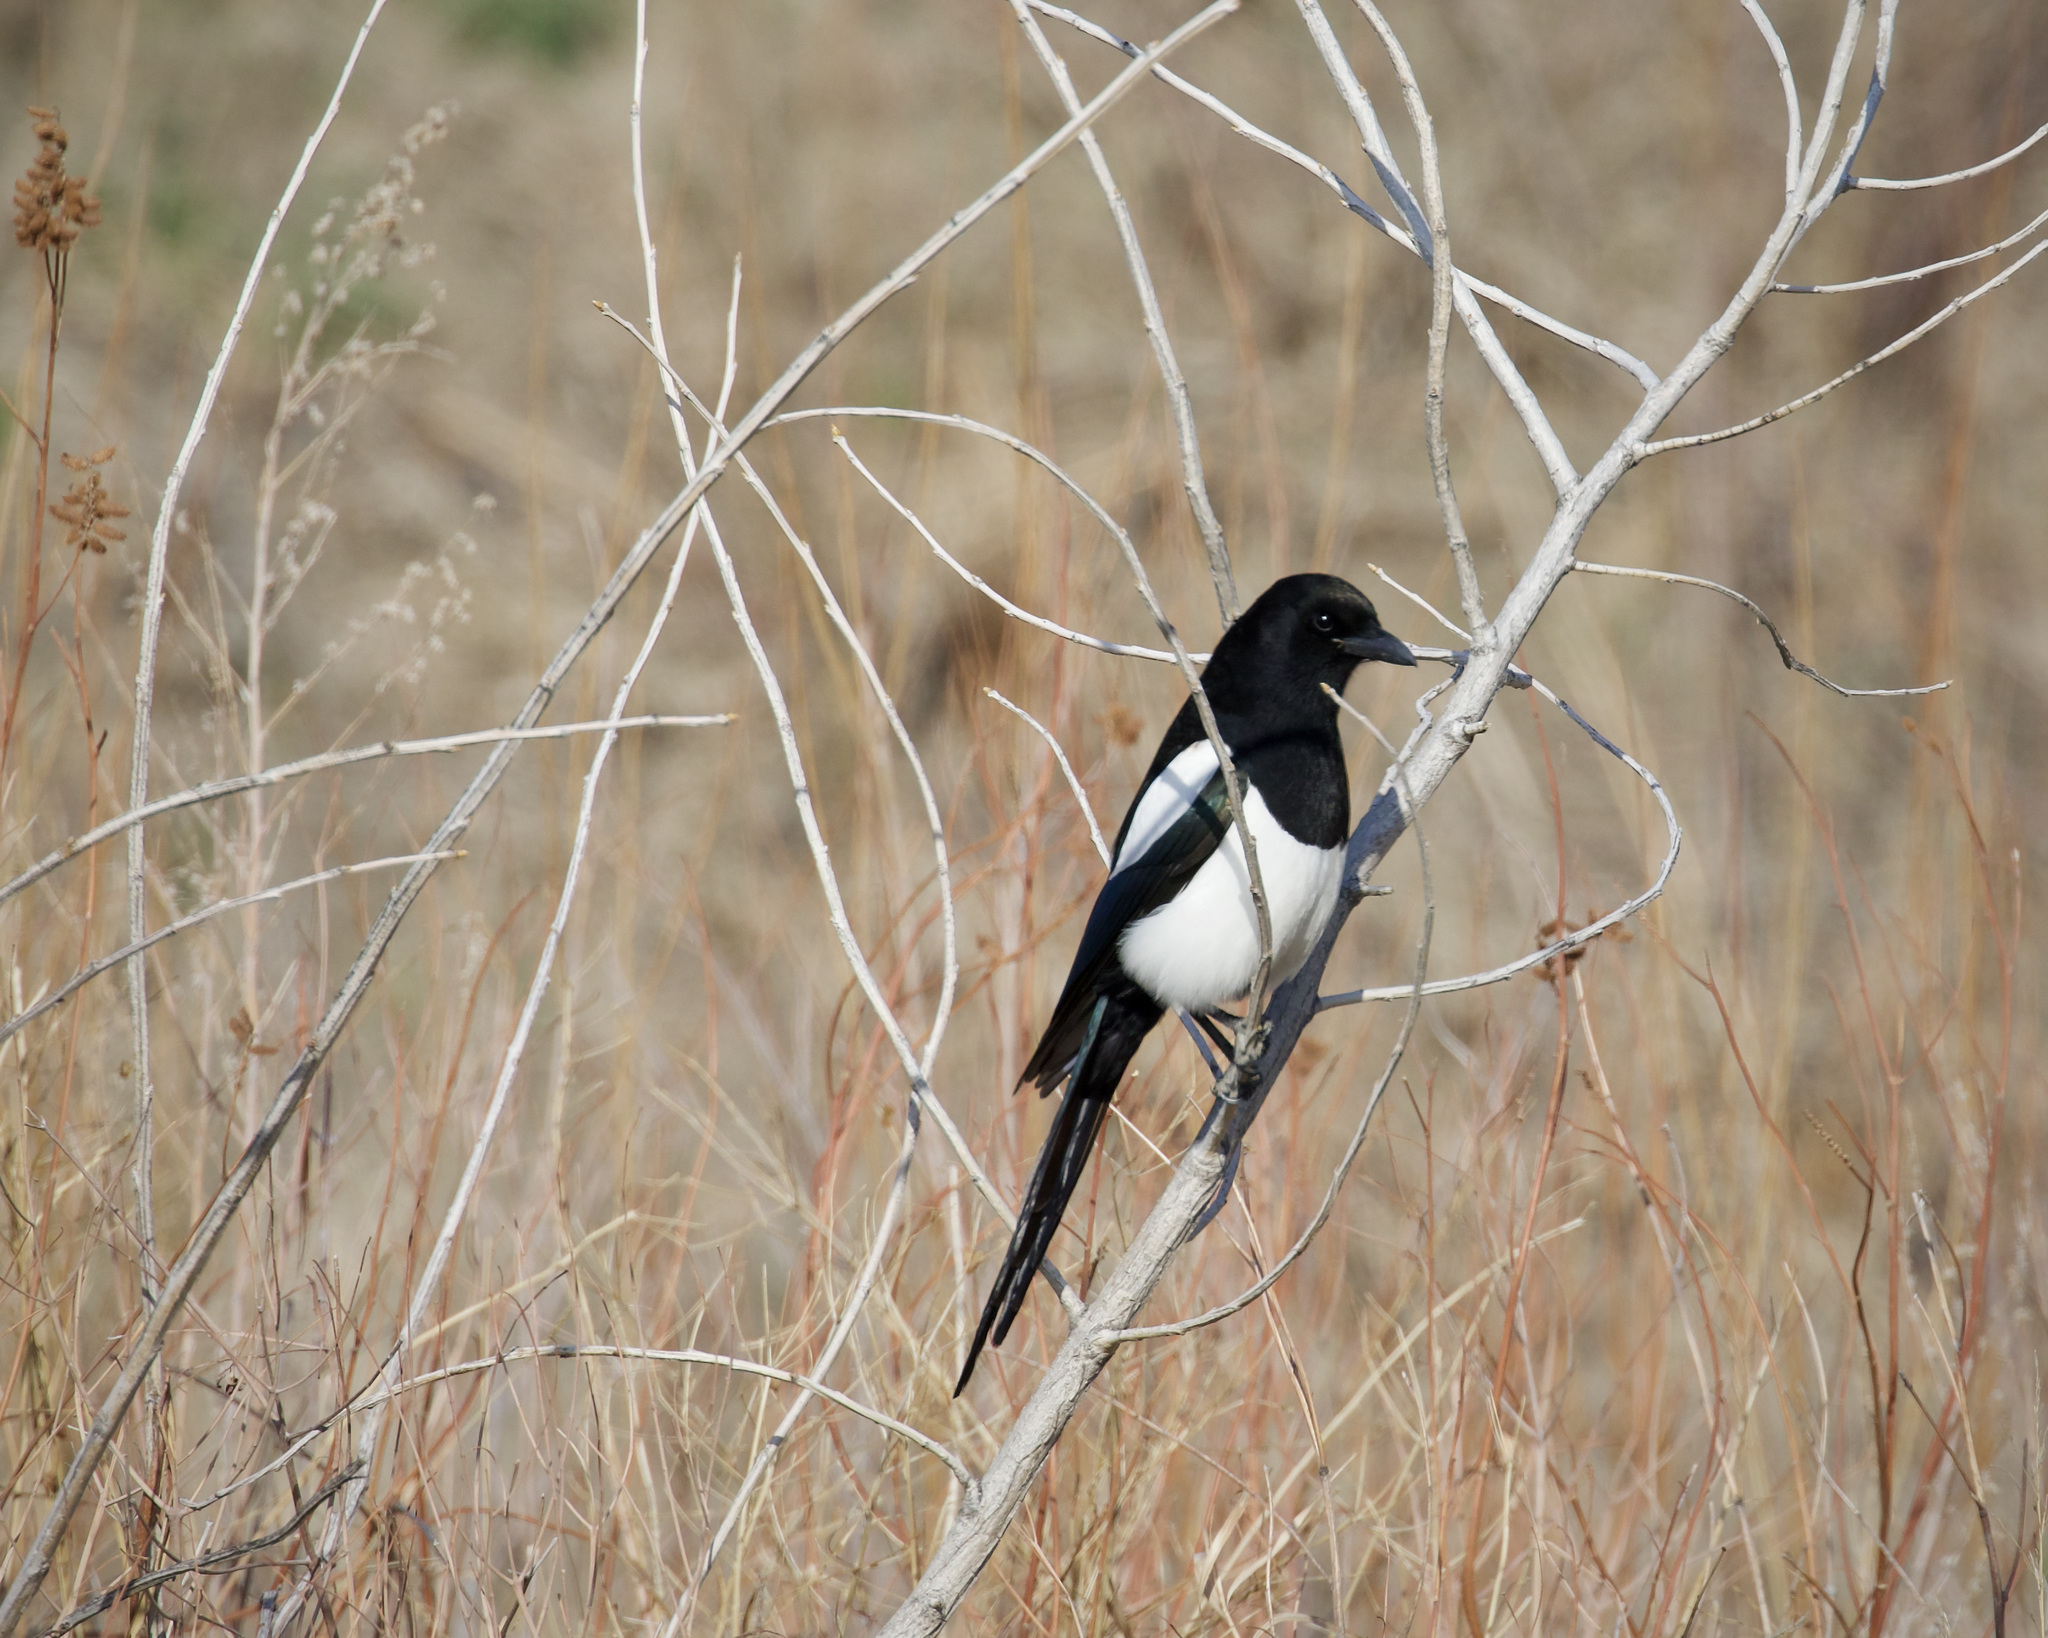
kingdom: Animalia
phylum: Chordata
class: Aves
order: Passeriformes
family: Corvidae
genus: Pica
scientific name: Pica hudsonia
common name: Black-billed magpie
